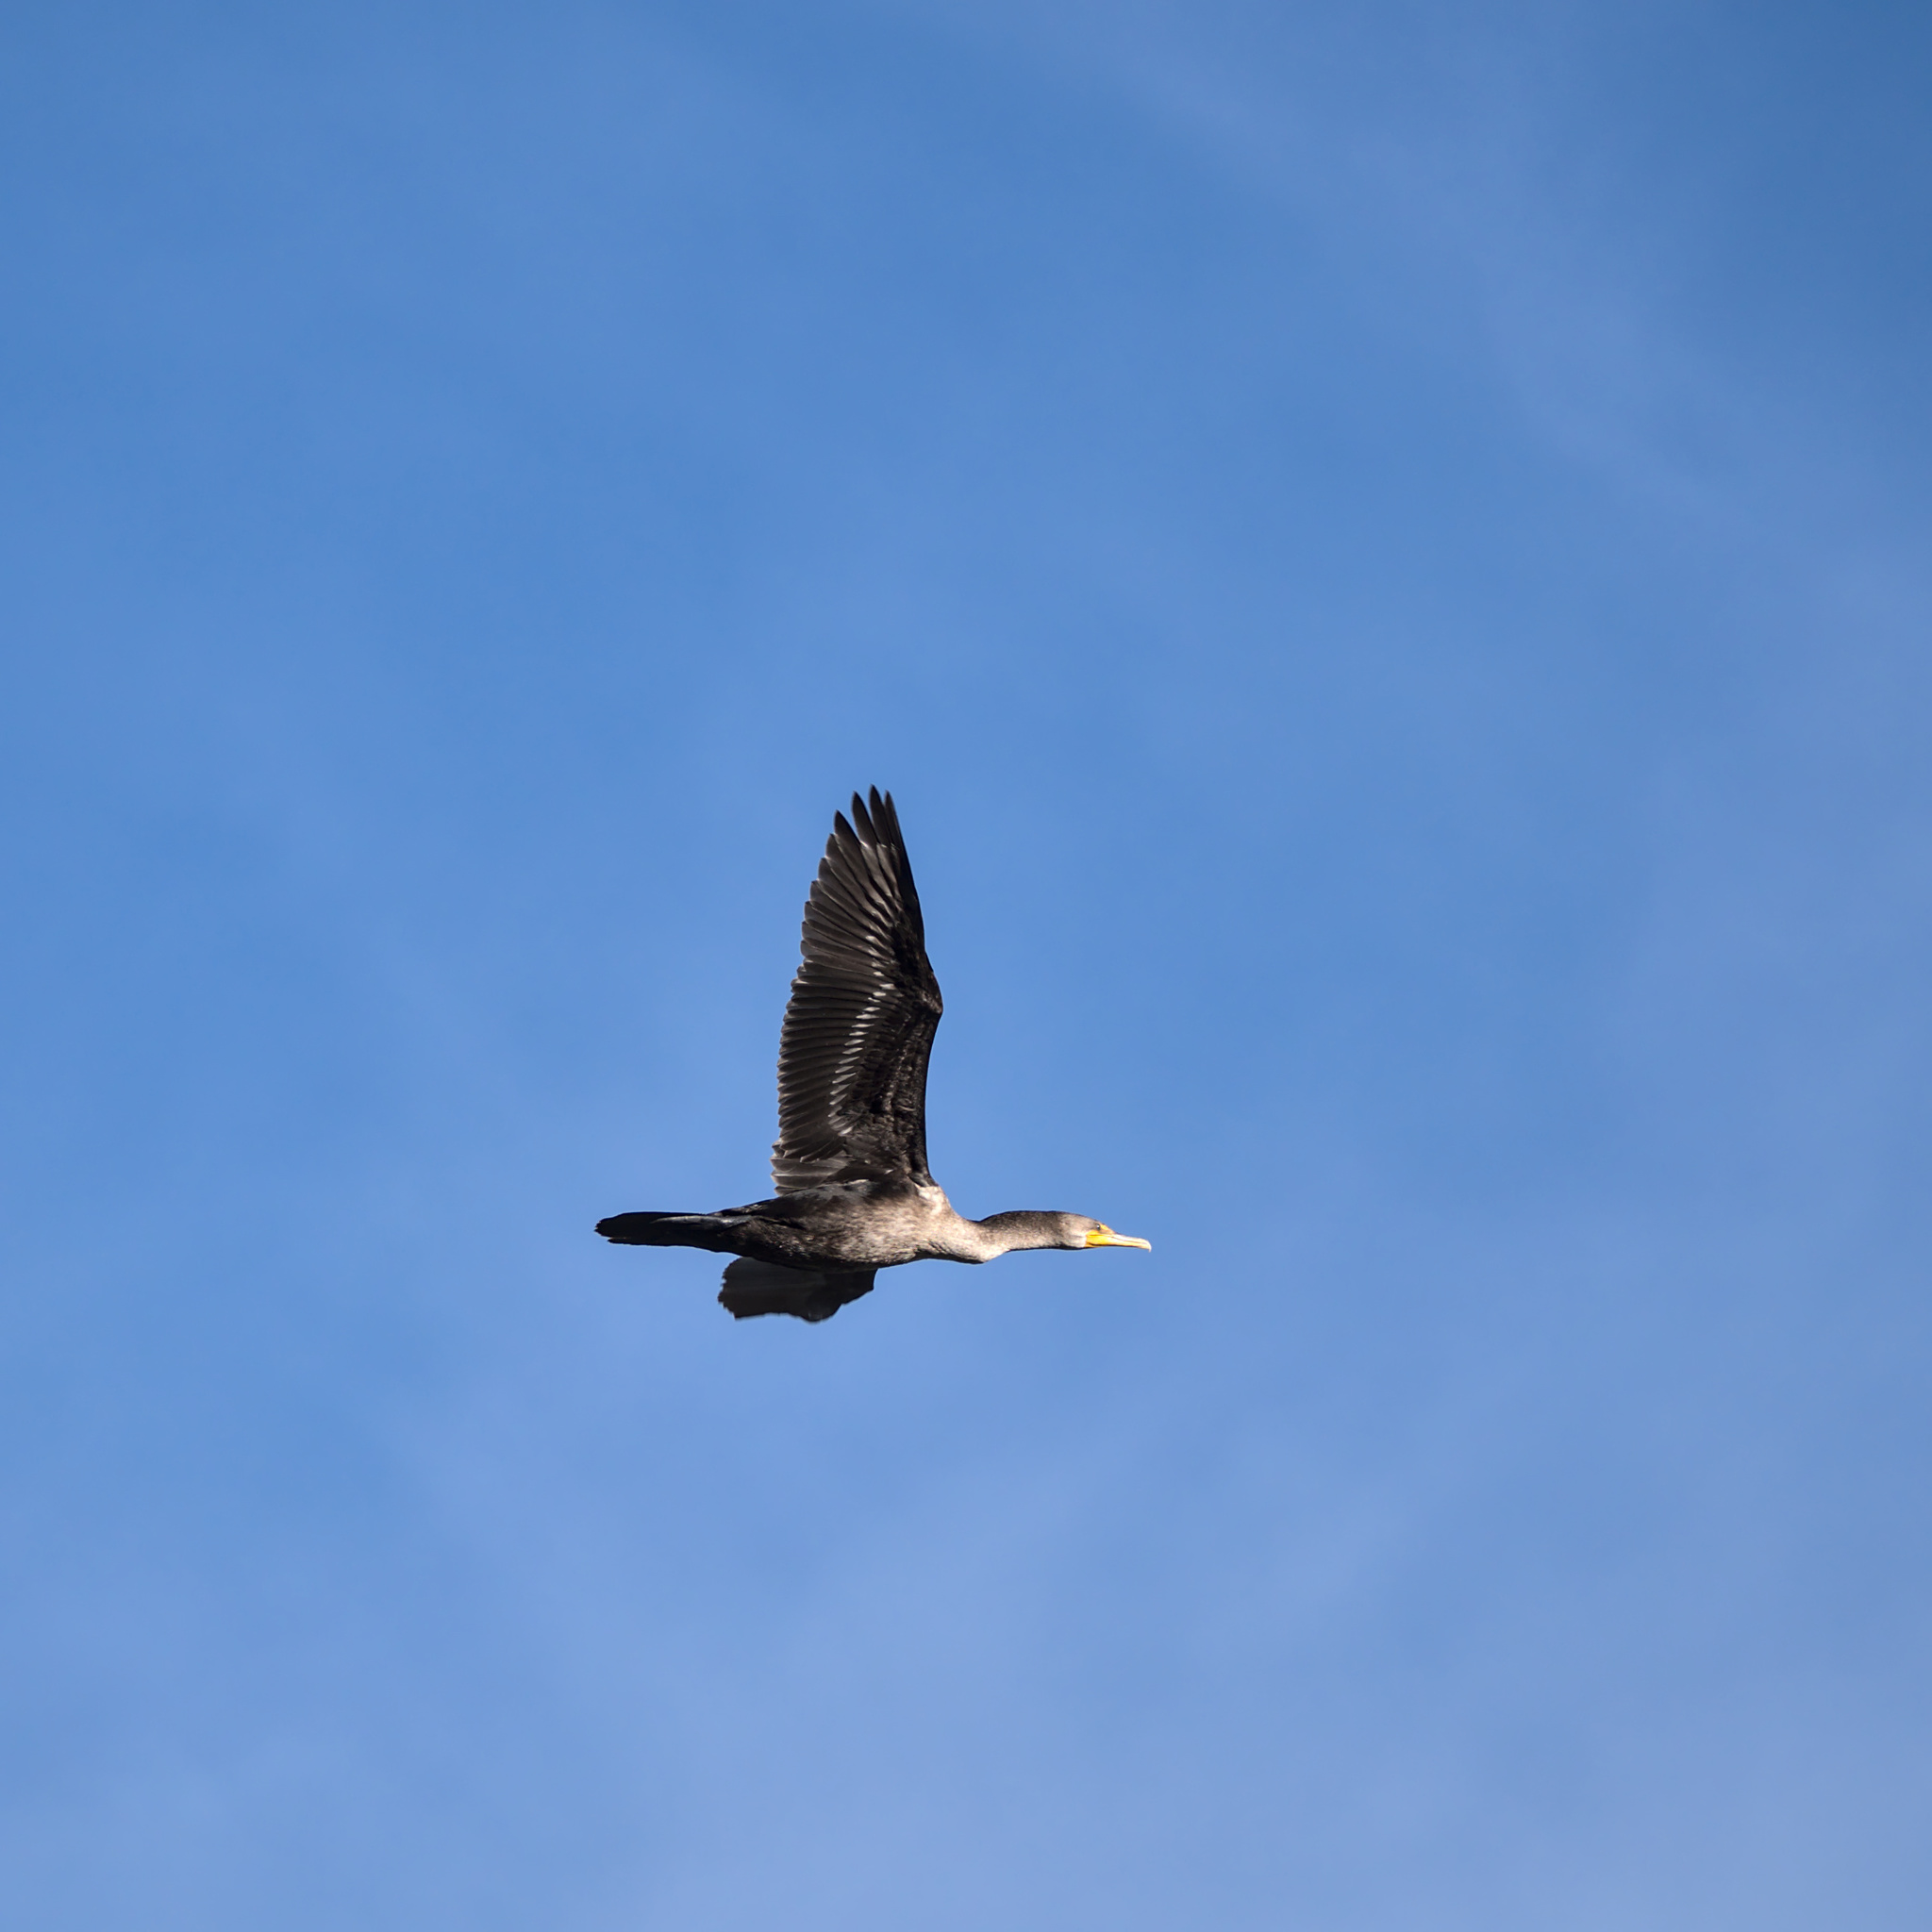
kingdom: Animalia
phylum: Chordata
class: Aves
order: Suliformes
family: Phalacrocoracidae
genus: Phalacrocorax
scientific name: Phalacrocorax auritus
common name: Double-crested cormorant
